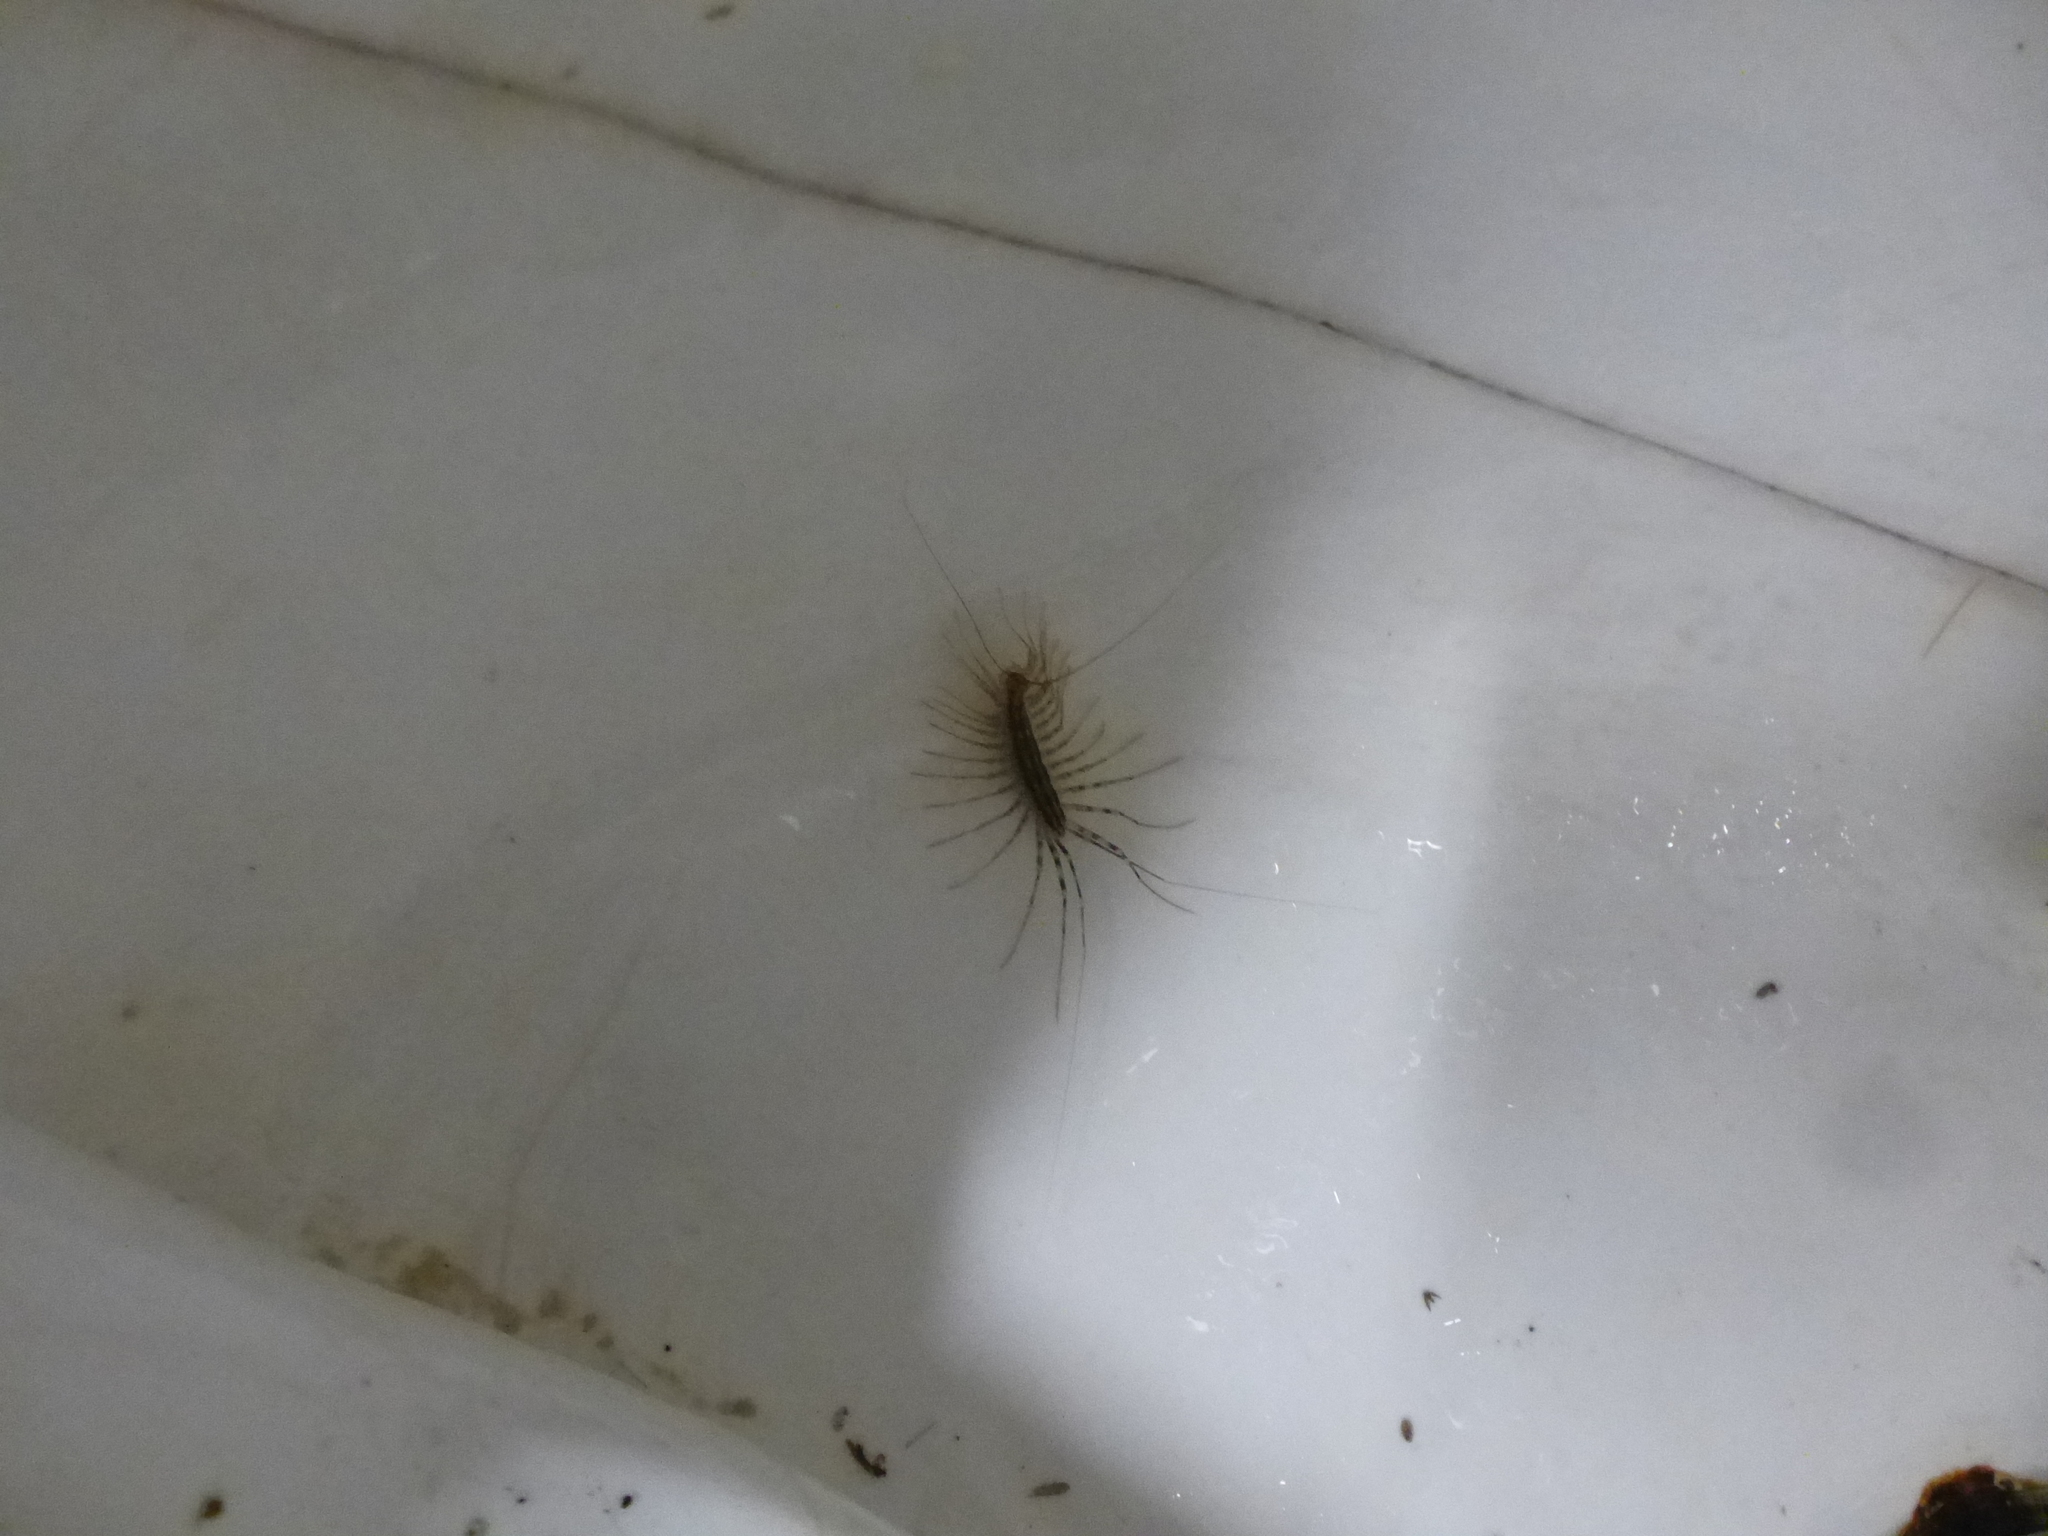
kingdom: Animalia
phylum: Arthropoda
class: Chilopoda
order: Scutigeromorpha
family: Scutigeridae
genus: Scutigera
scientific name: Scutigera coleoptrata
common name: House centipede
